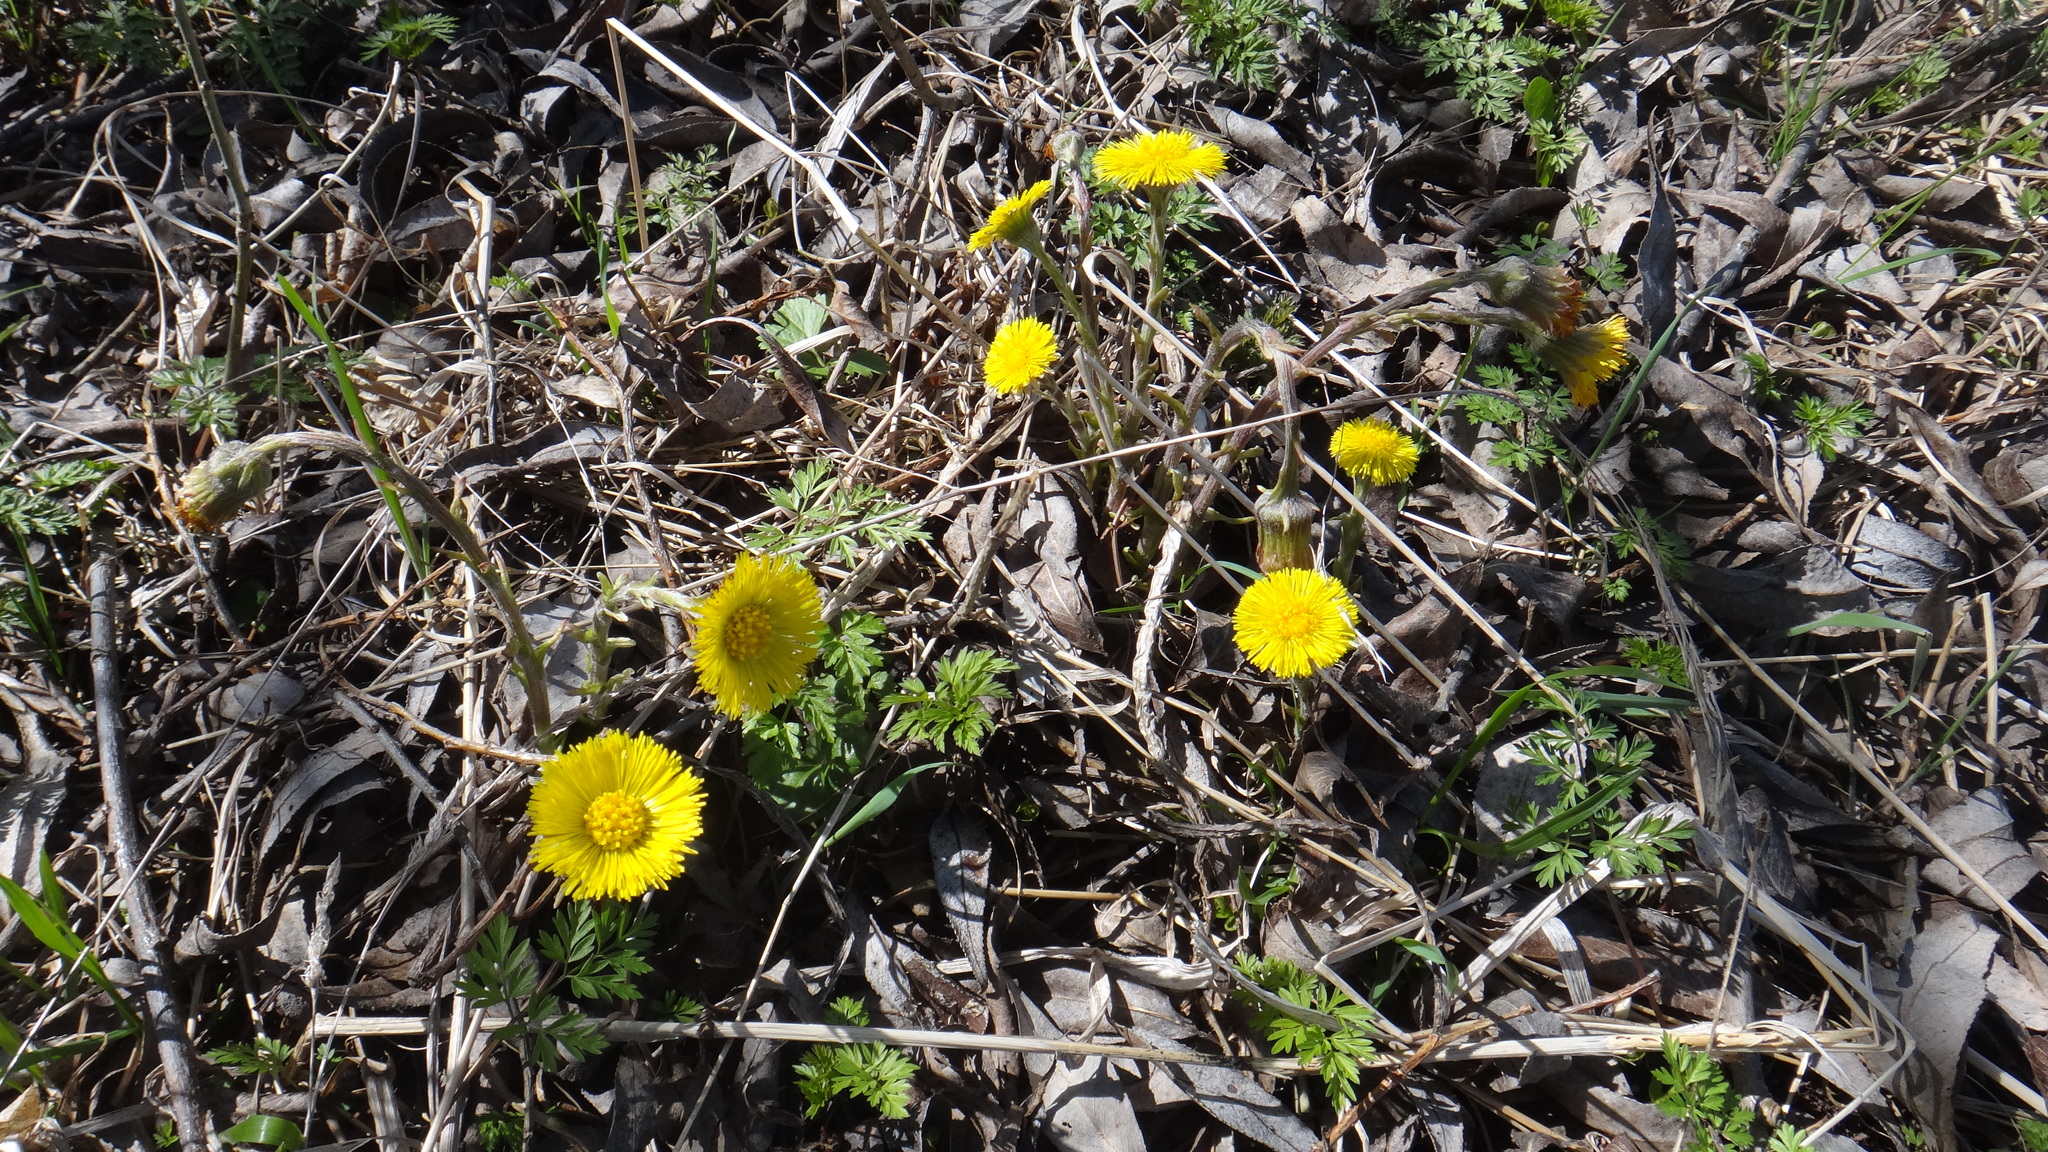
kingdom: Plantae
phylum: Tracheophyta
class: Magnoliopsida
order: Asterales
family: Asteraceae
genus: Tussilago
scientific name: Tussilago farfara
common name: Coltsfoot
